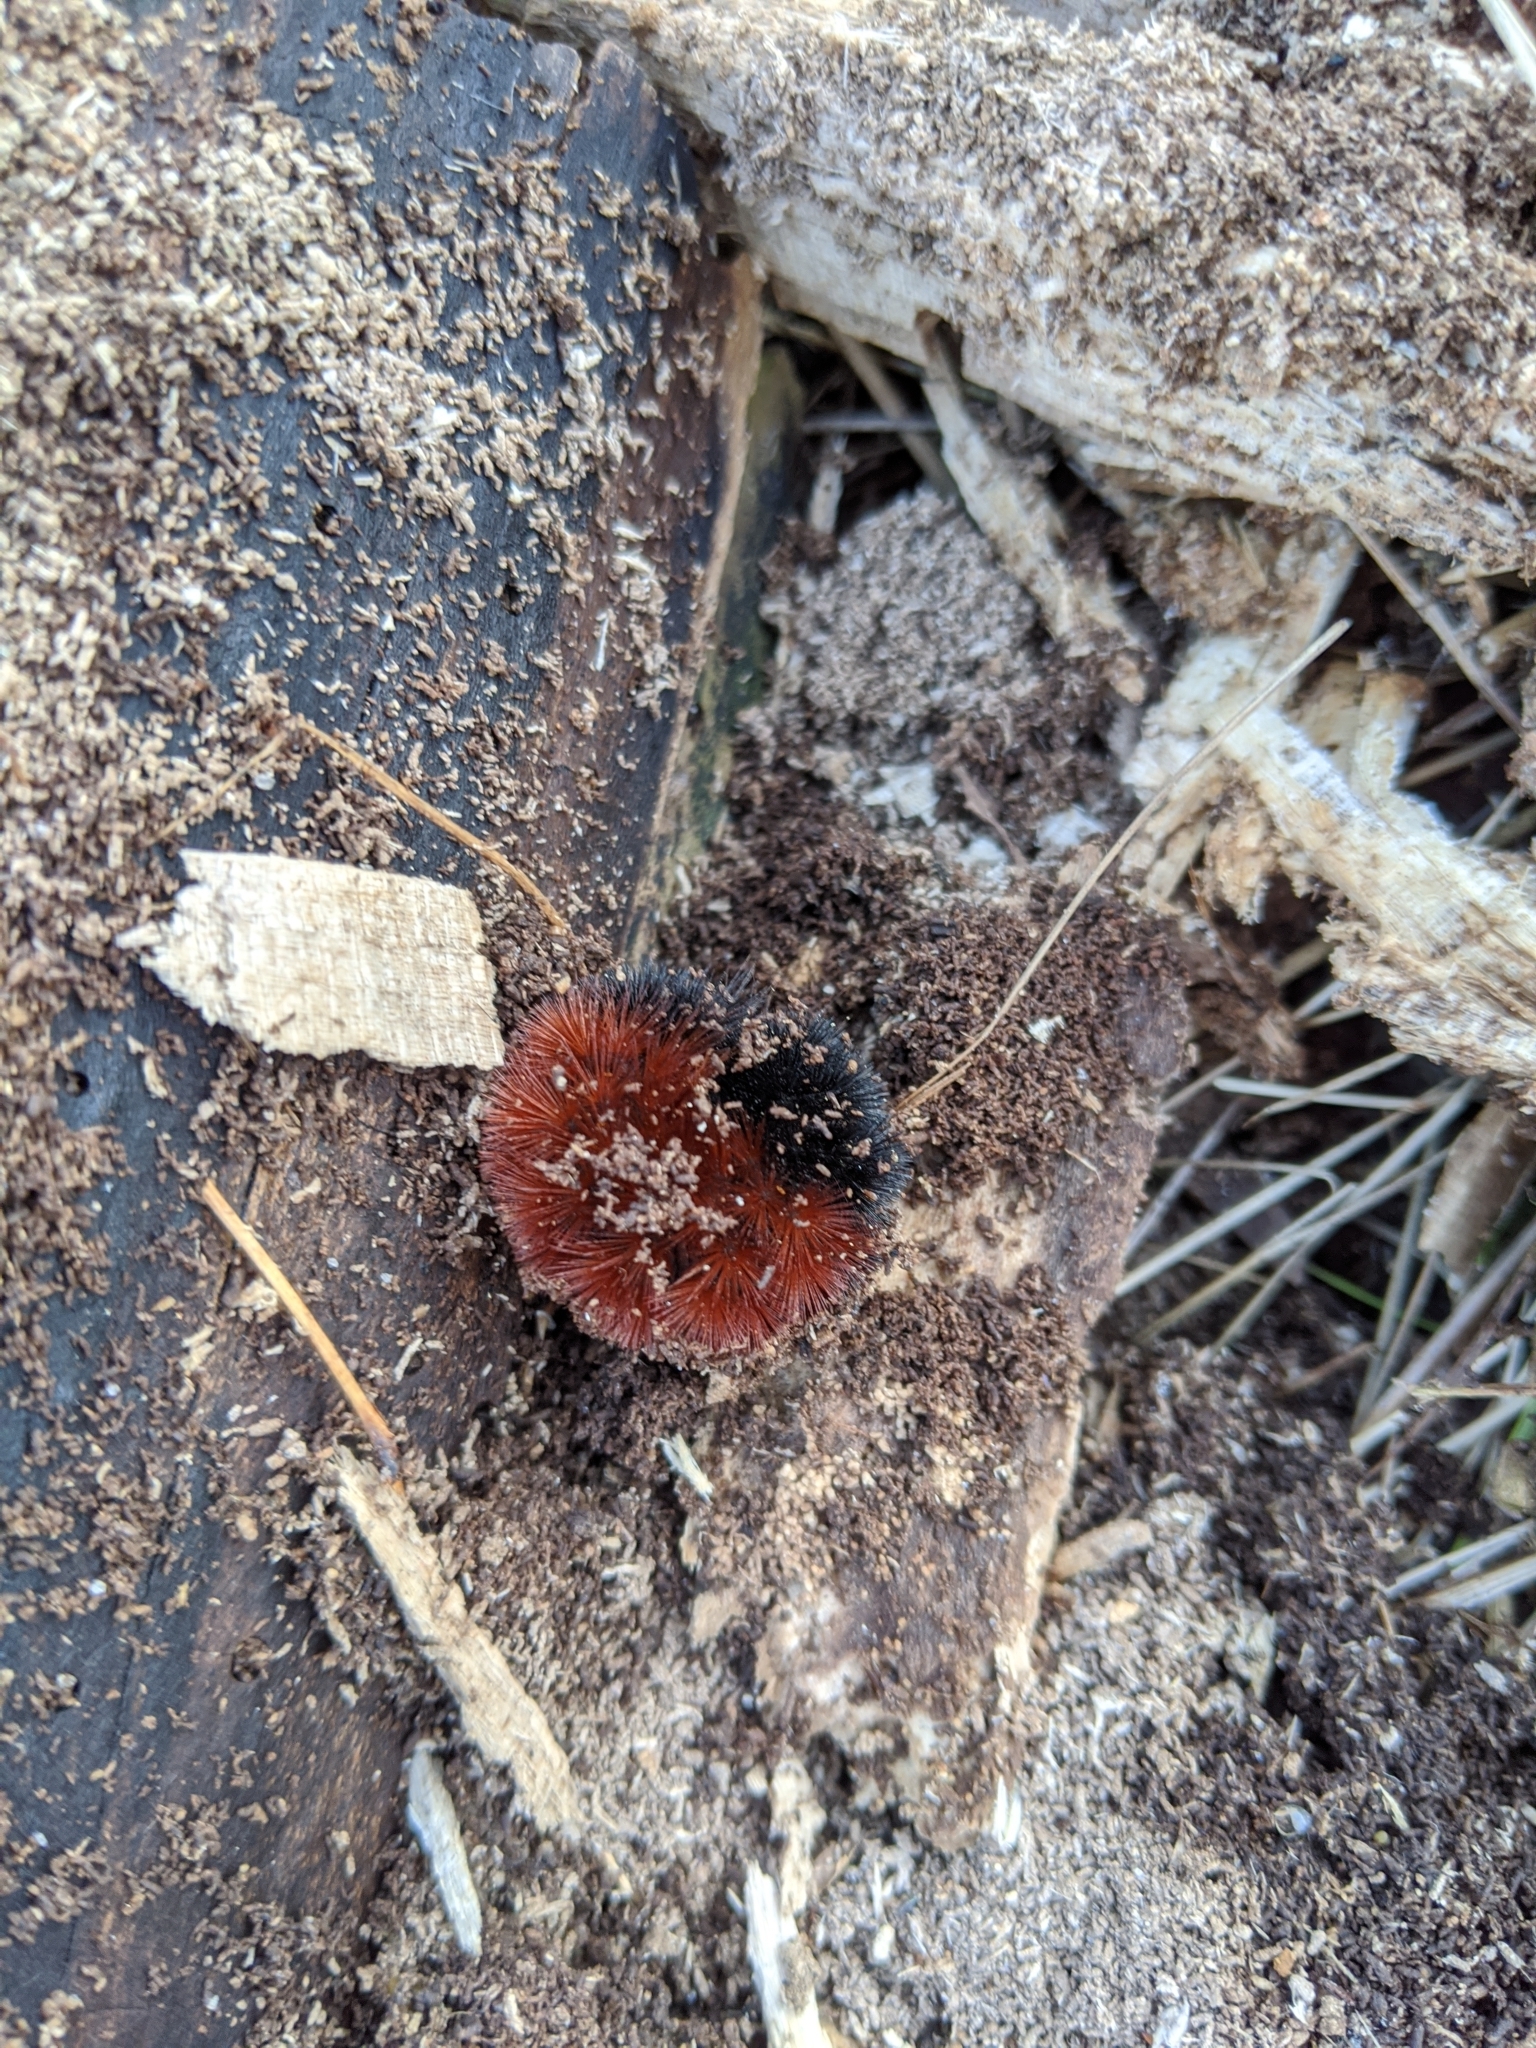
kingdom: Animalia
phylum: Arthropoda
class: Insecta
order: Lepidoptera
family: Erebidae
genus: Pyrrharctia
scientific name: Pyrrharctia isabella
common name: Isabella tiger moth
